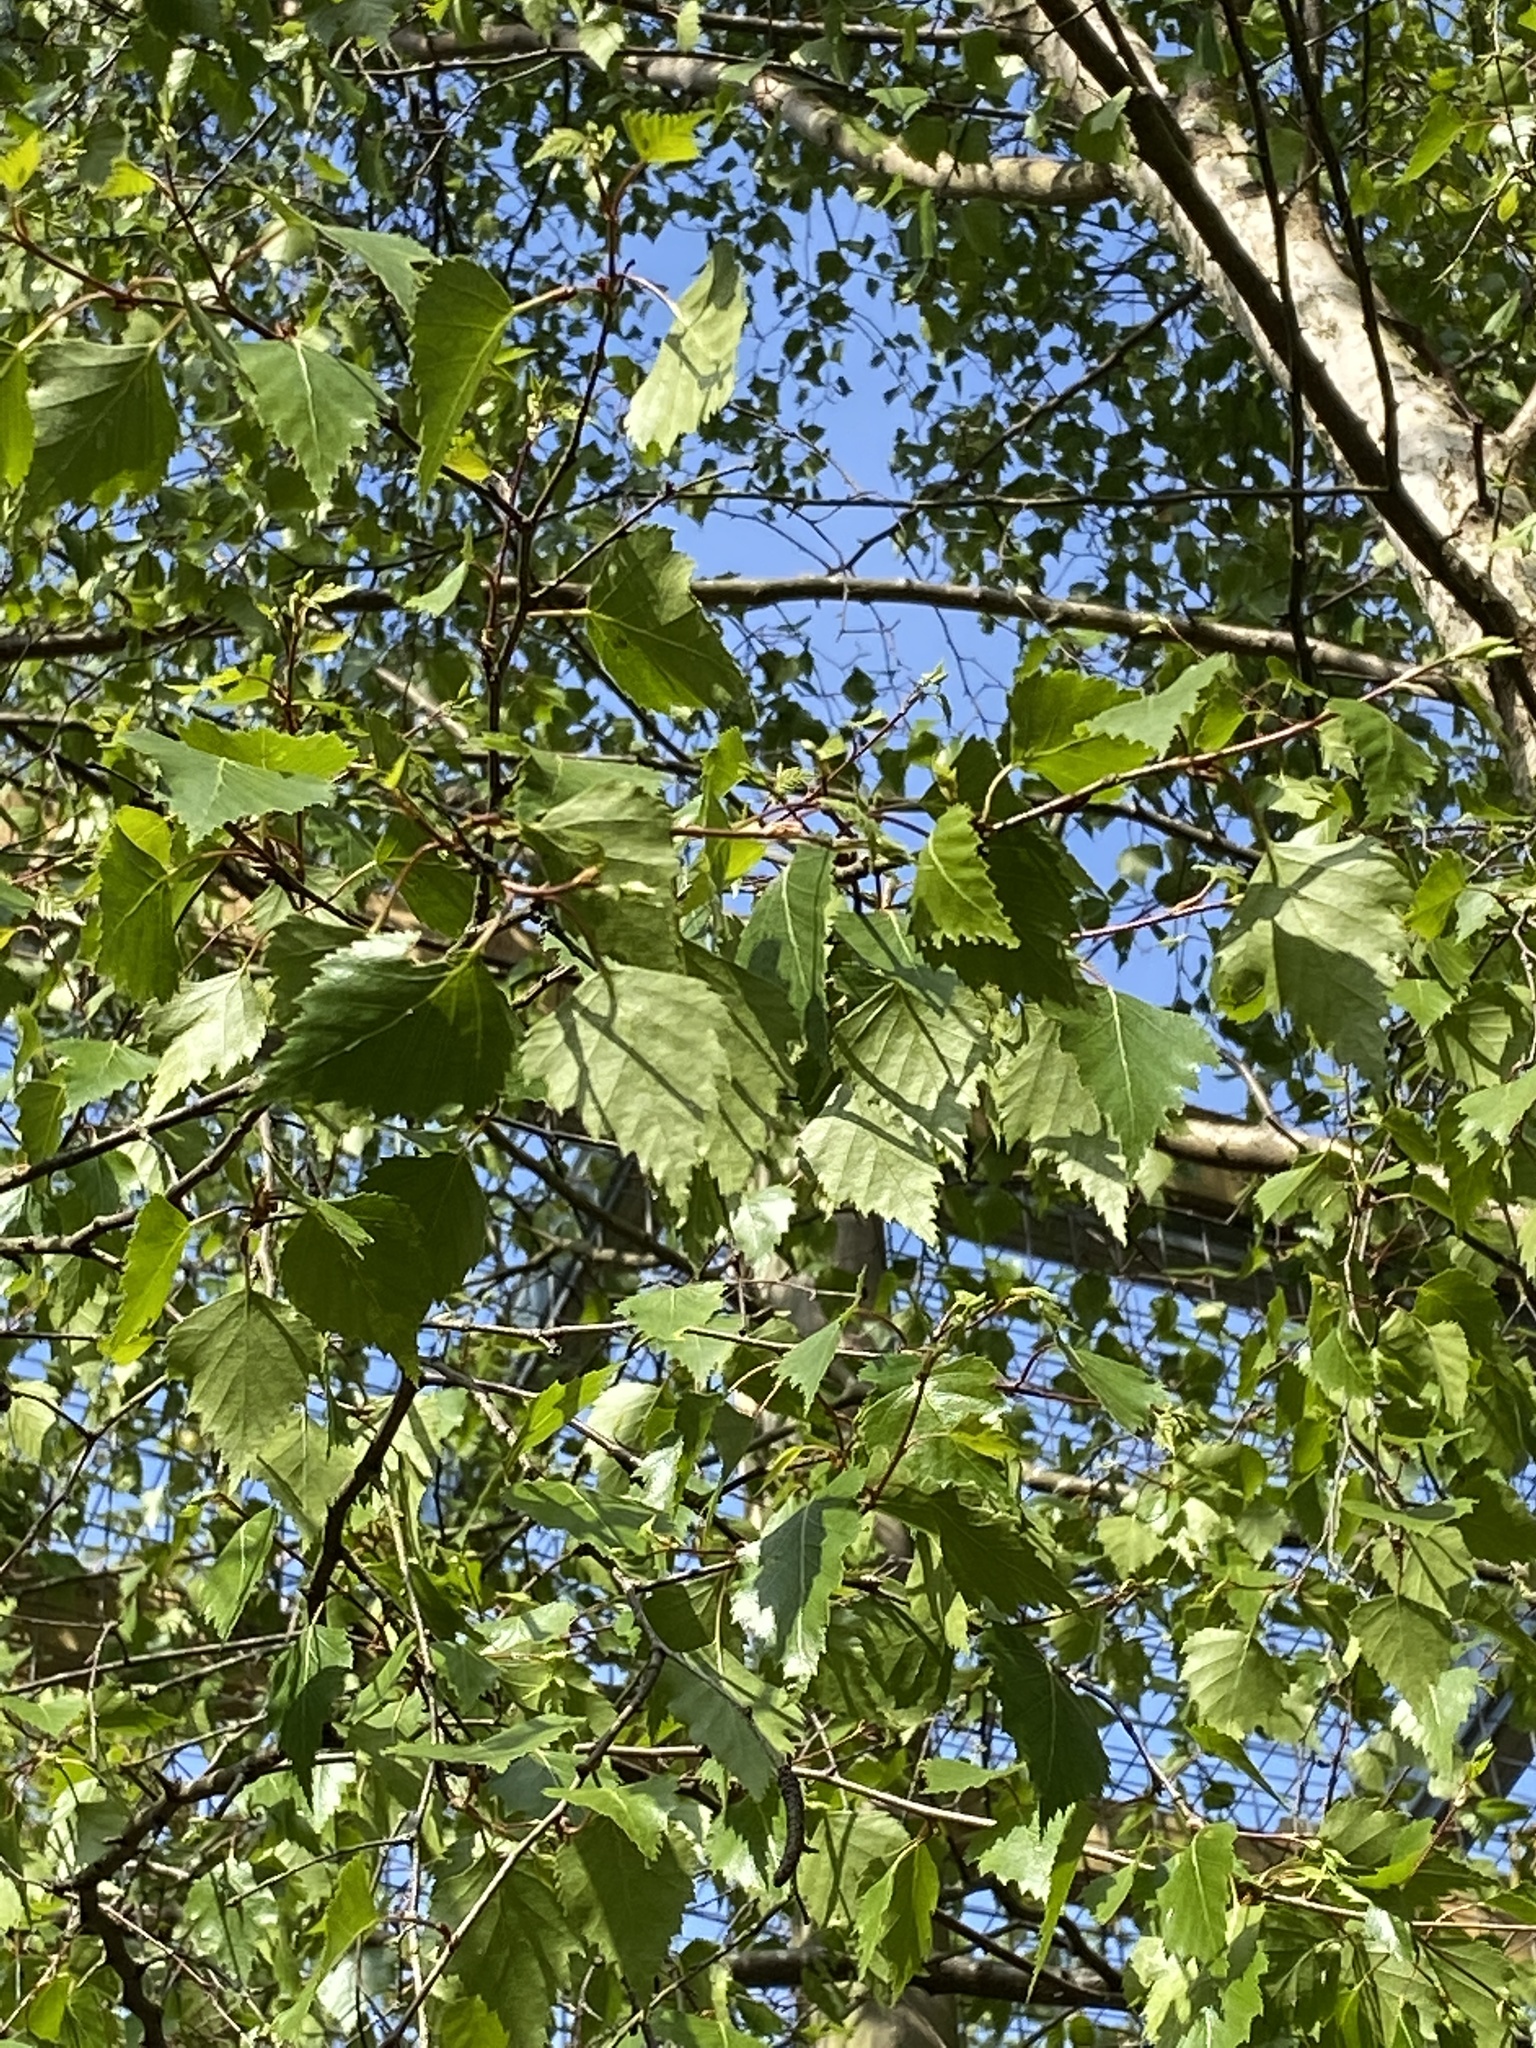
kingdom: Plantae
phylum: Tracheophyta
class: Magnoliopsida
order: Fagales
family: Betulaceae
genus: Betula
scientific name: Betula pendula
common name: Silver birch
